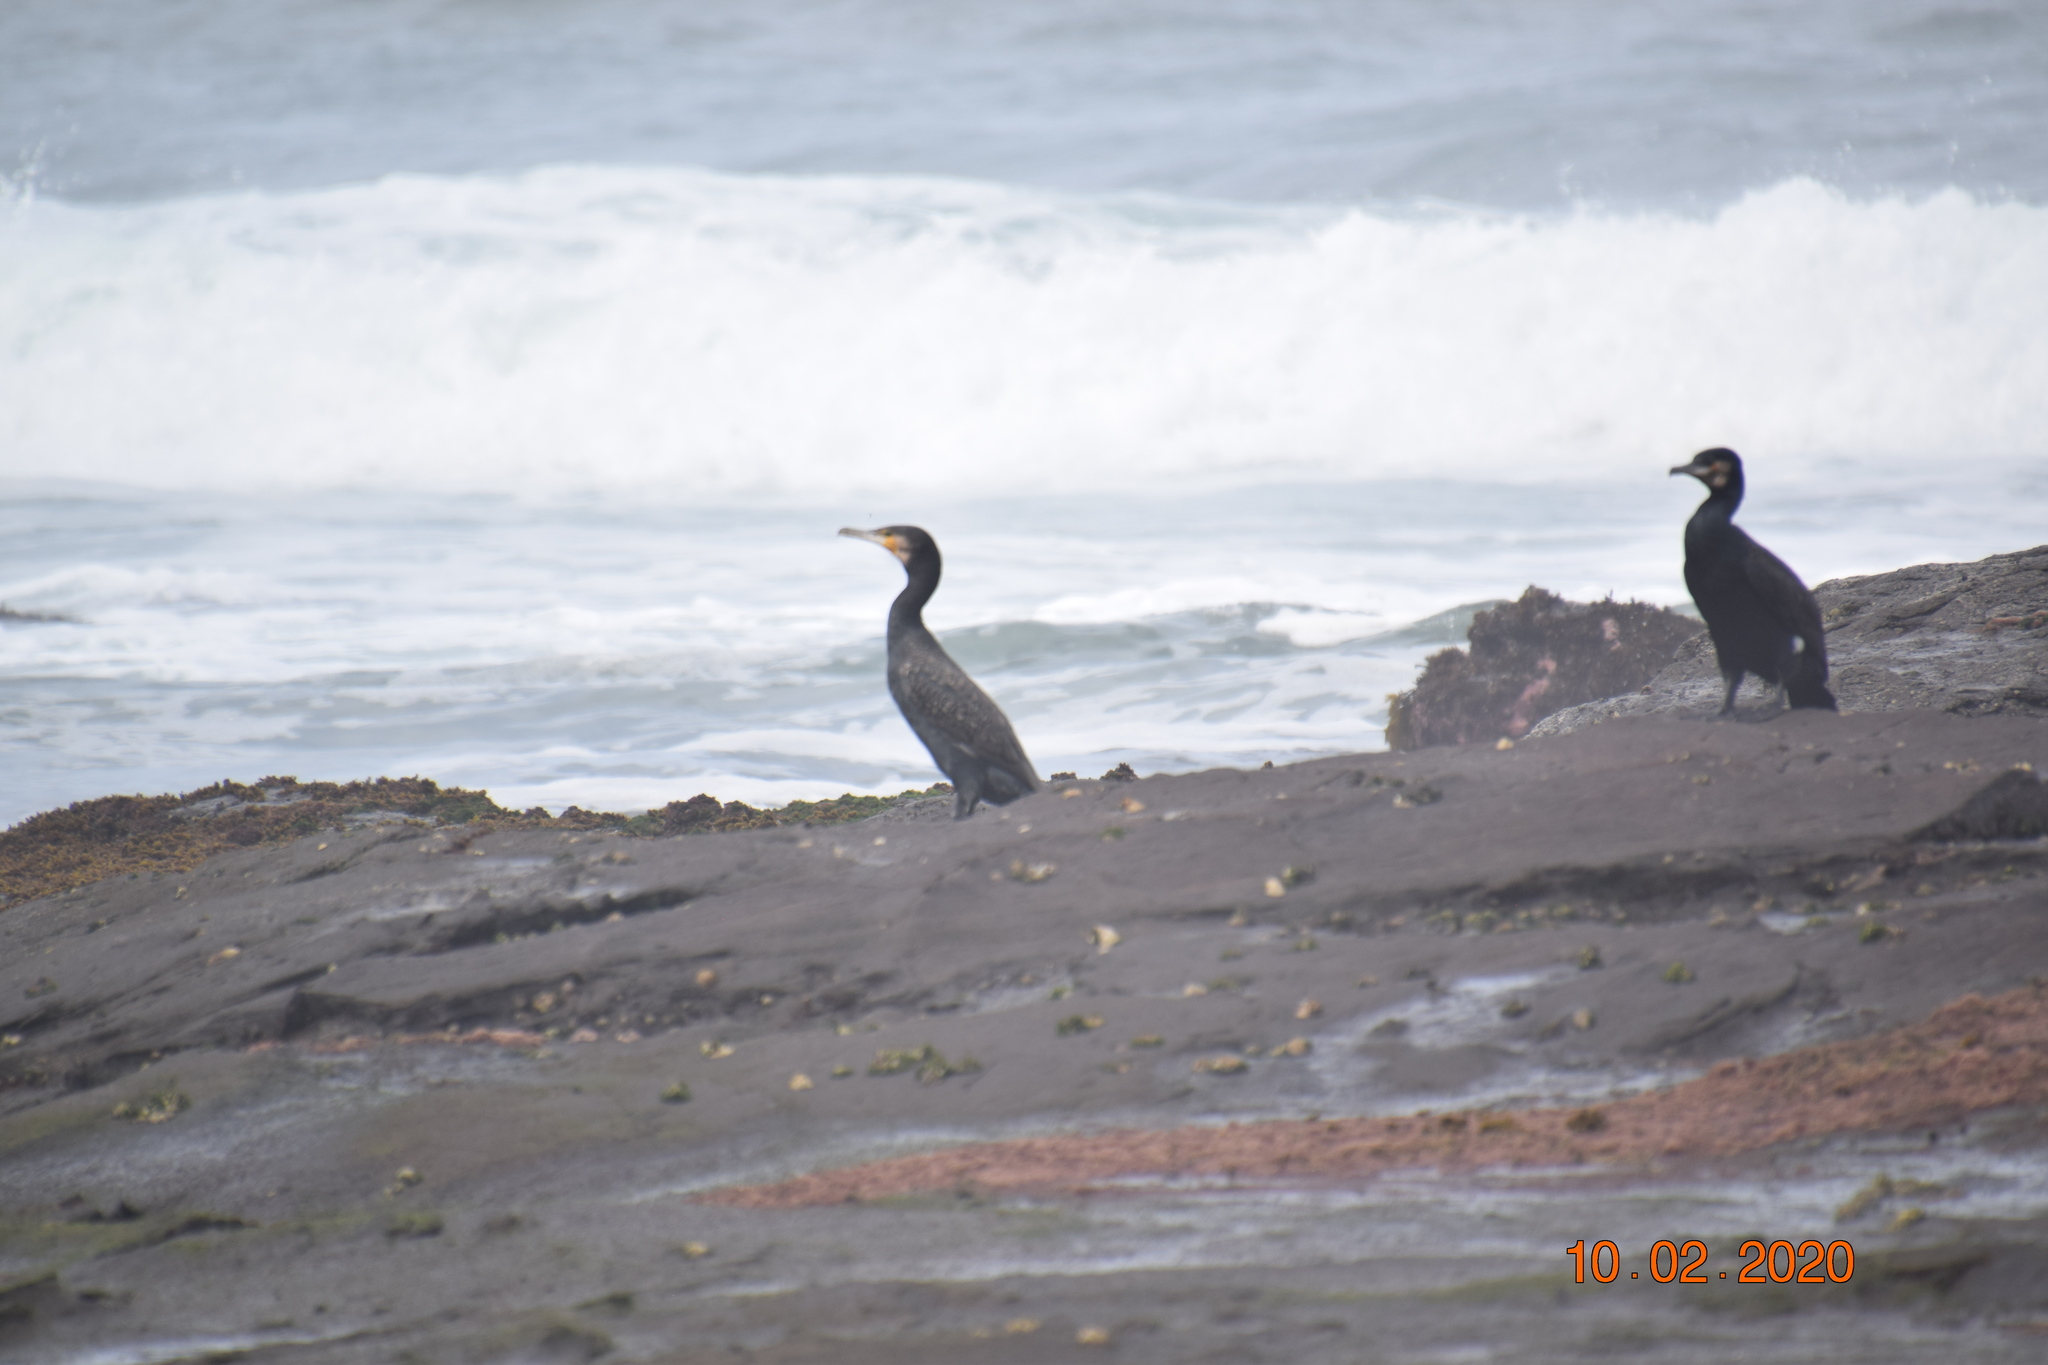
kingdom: Animalia
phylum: Chordata
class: Aves
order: Suliformes
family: Phalacrocoracidae
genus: Phalacrocorax
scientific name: Phalacrocorax carbo
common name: Great cormorant
